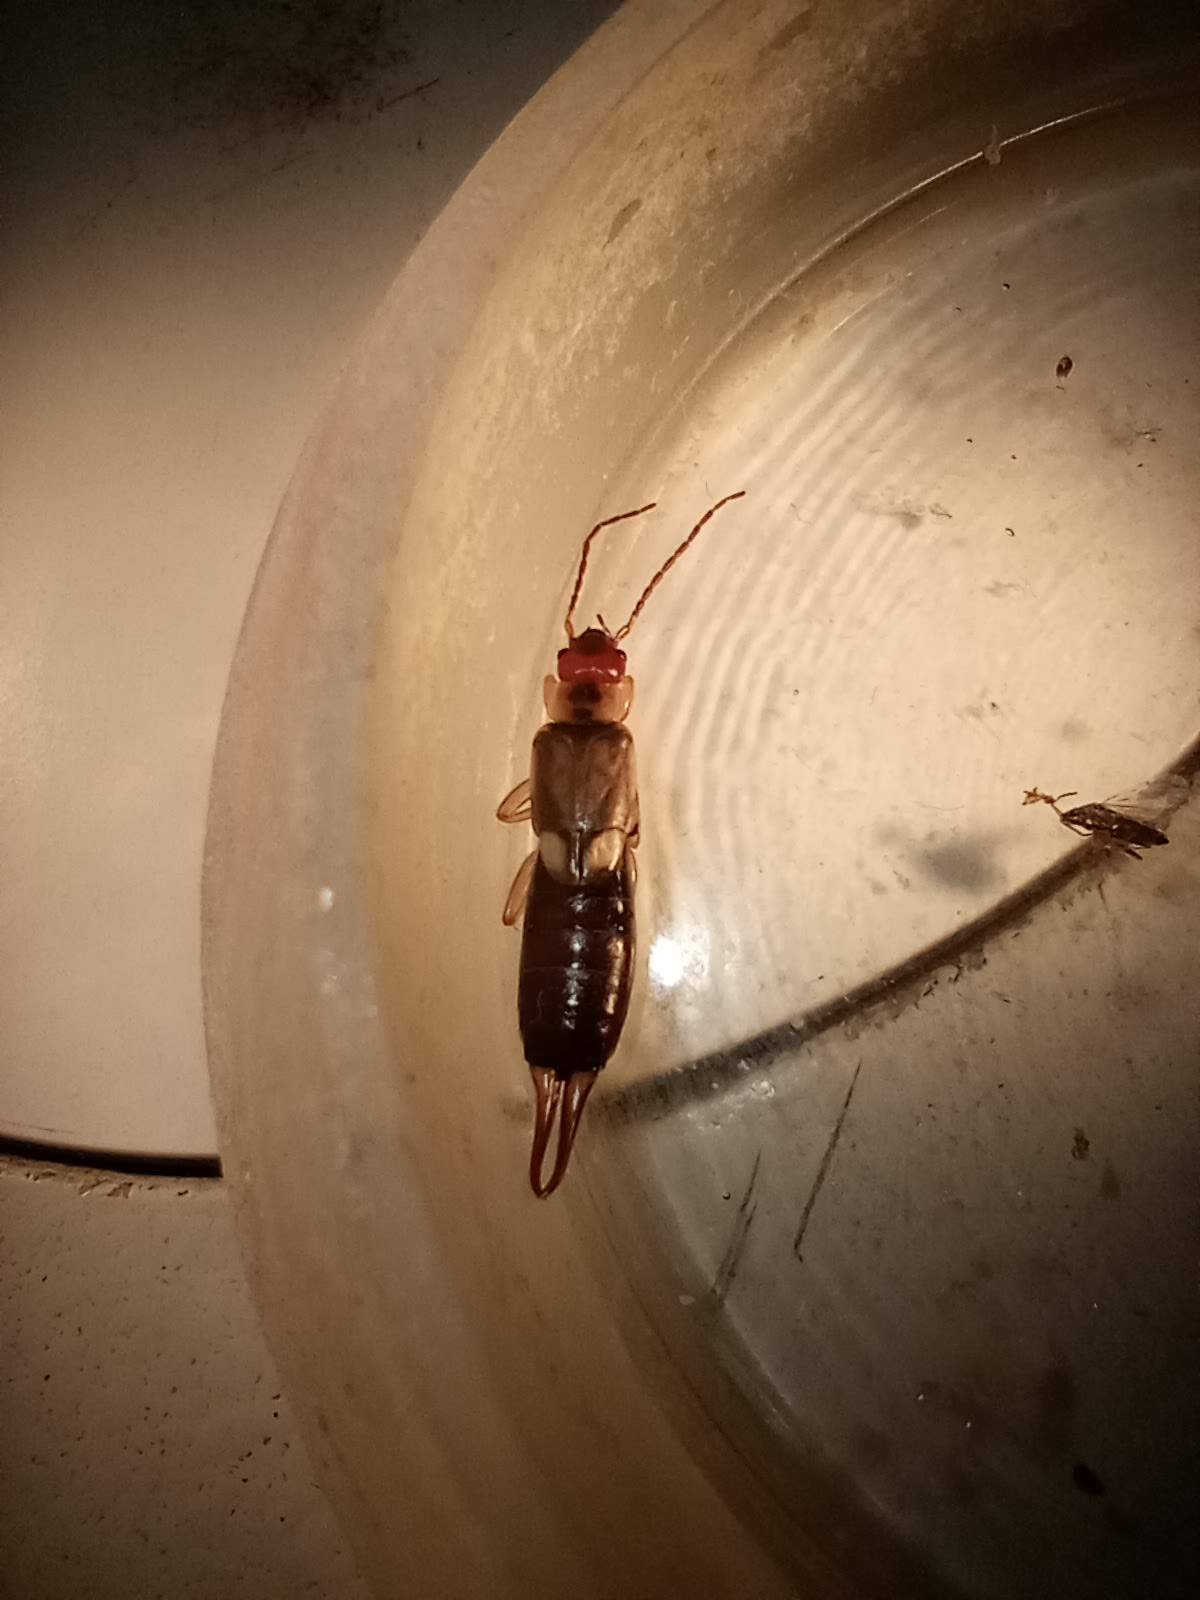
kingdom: Animalia
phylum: Arthropoda
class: Insecta
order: Dermaptera
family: Forficulidae
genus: Forficula
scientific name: Forficula
